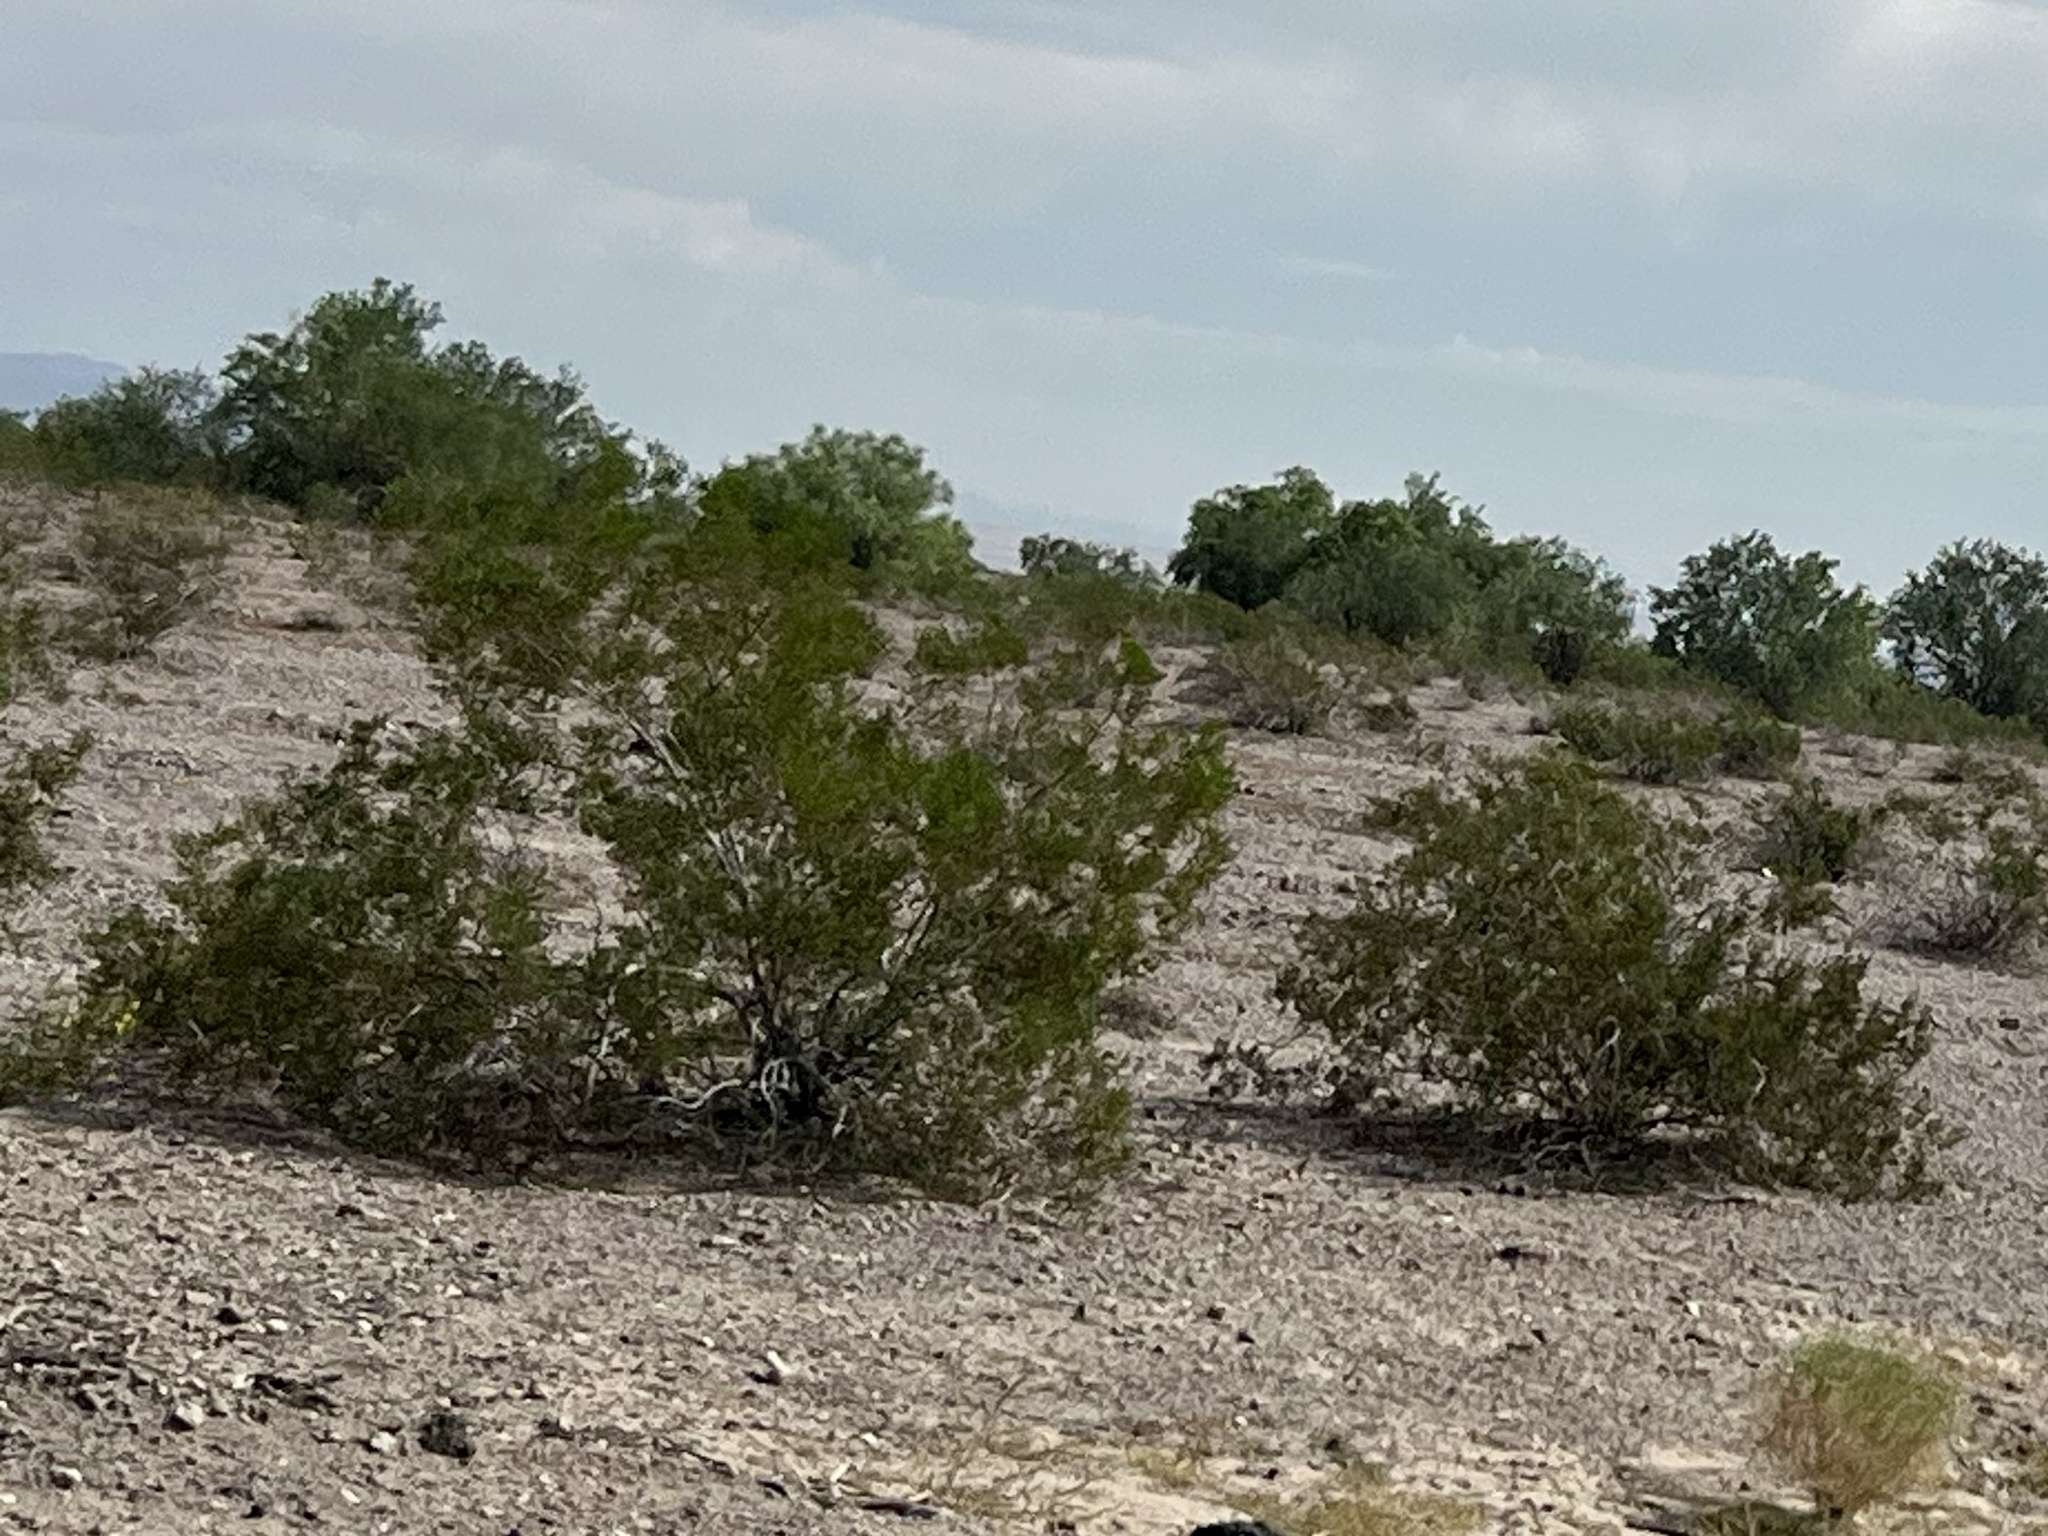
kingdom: Plantae
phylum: Tracheophyta
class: Magnoliopsida
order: Zygophyllales
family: Zygophyllaceae
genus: Larrea
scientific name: Larrea tridentata
